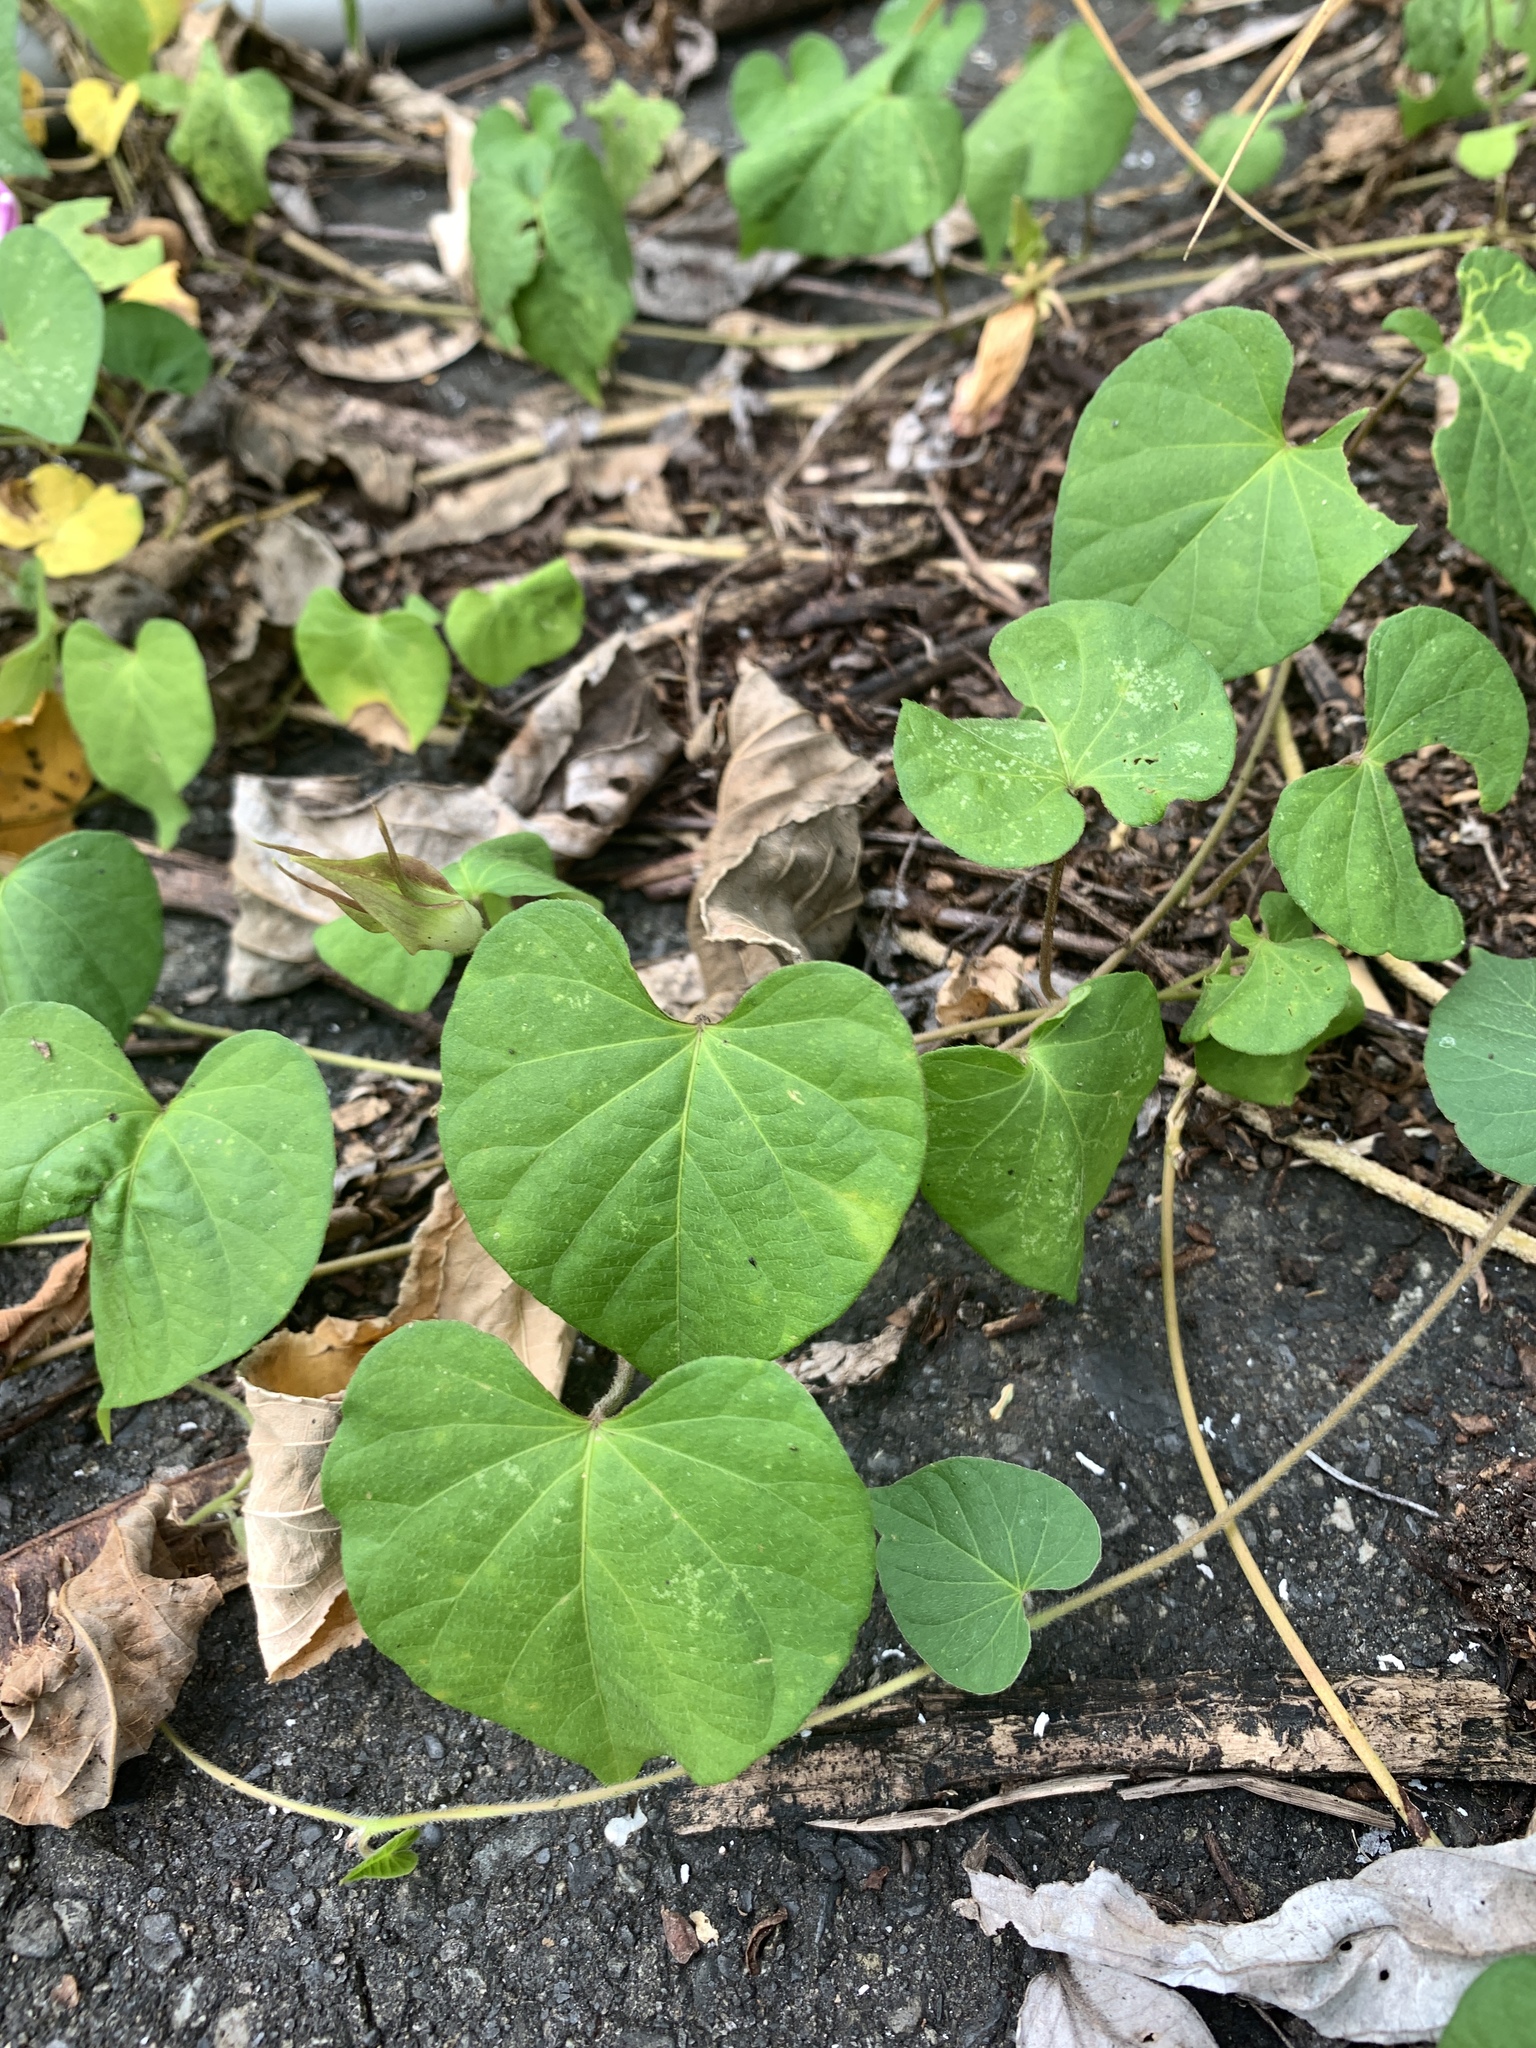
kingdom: Plantae
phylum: Tracheophyta
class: Magnoliopsida
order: Solanales
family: Convolvulaceae
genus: Ipomoea
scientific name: Ipomoea indica
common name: Blue dawnflower
